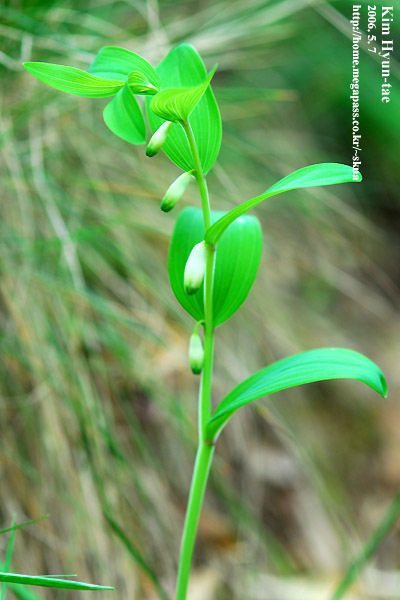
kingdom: Plantae
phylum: Tracheophyta
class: Liliopsida
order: Asparagales
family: Asparagaceae
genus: Polygonatum
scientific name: Polygonatum odoratum
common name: Angular solomon's-seal
